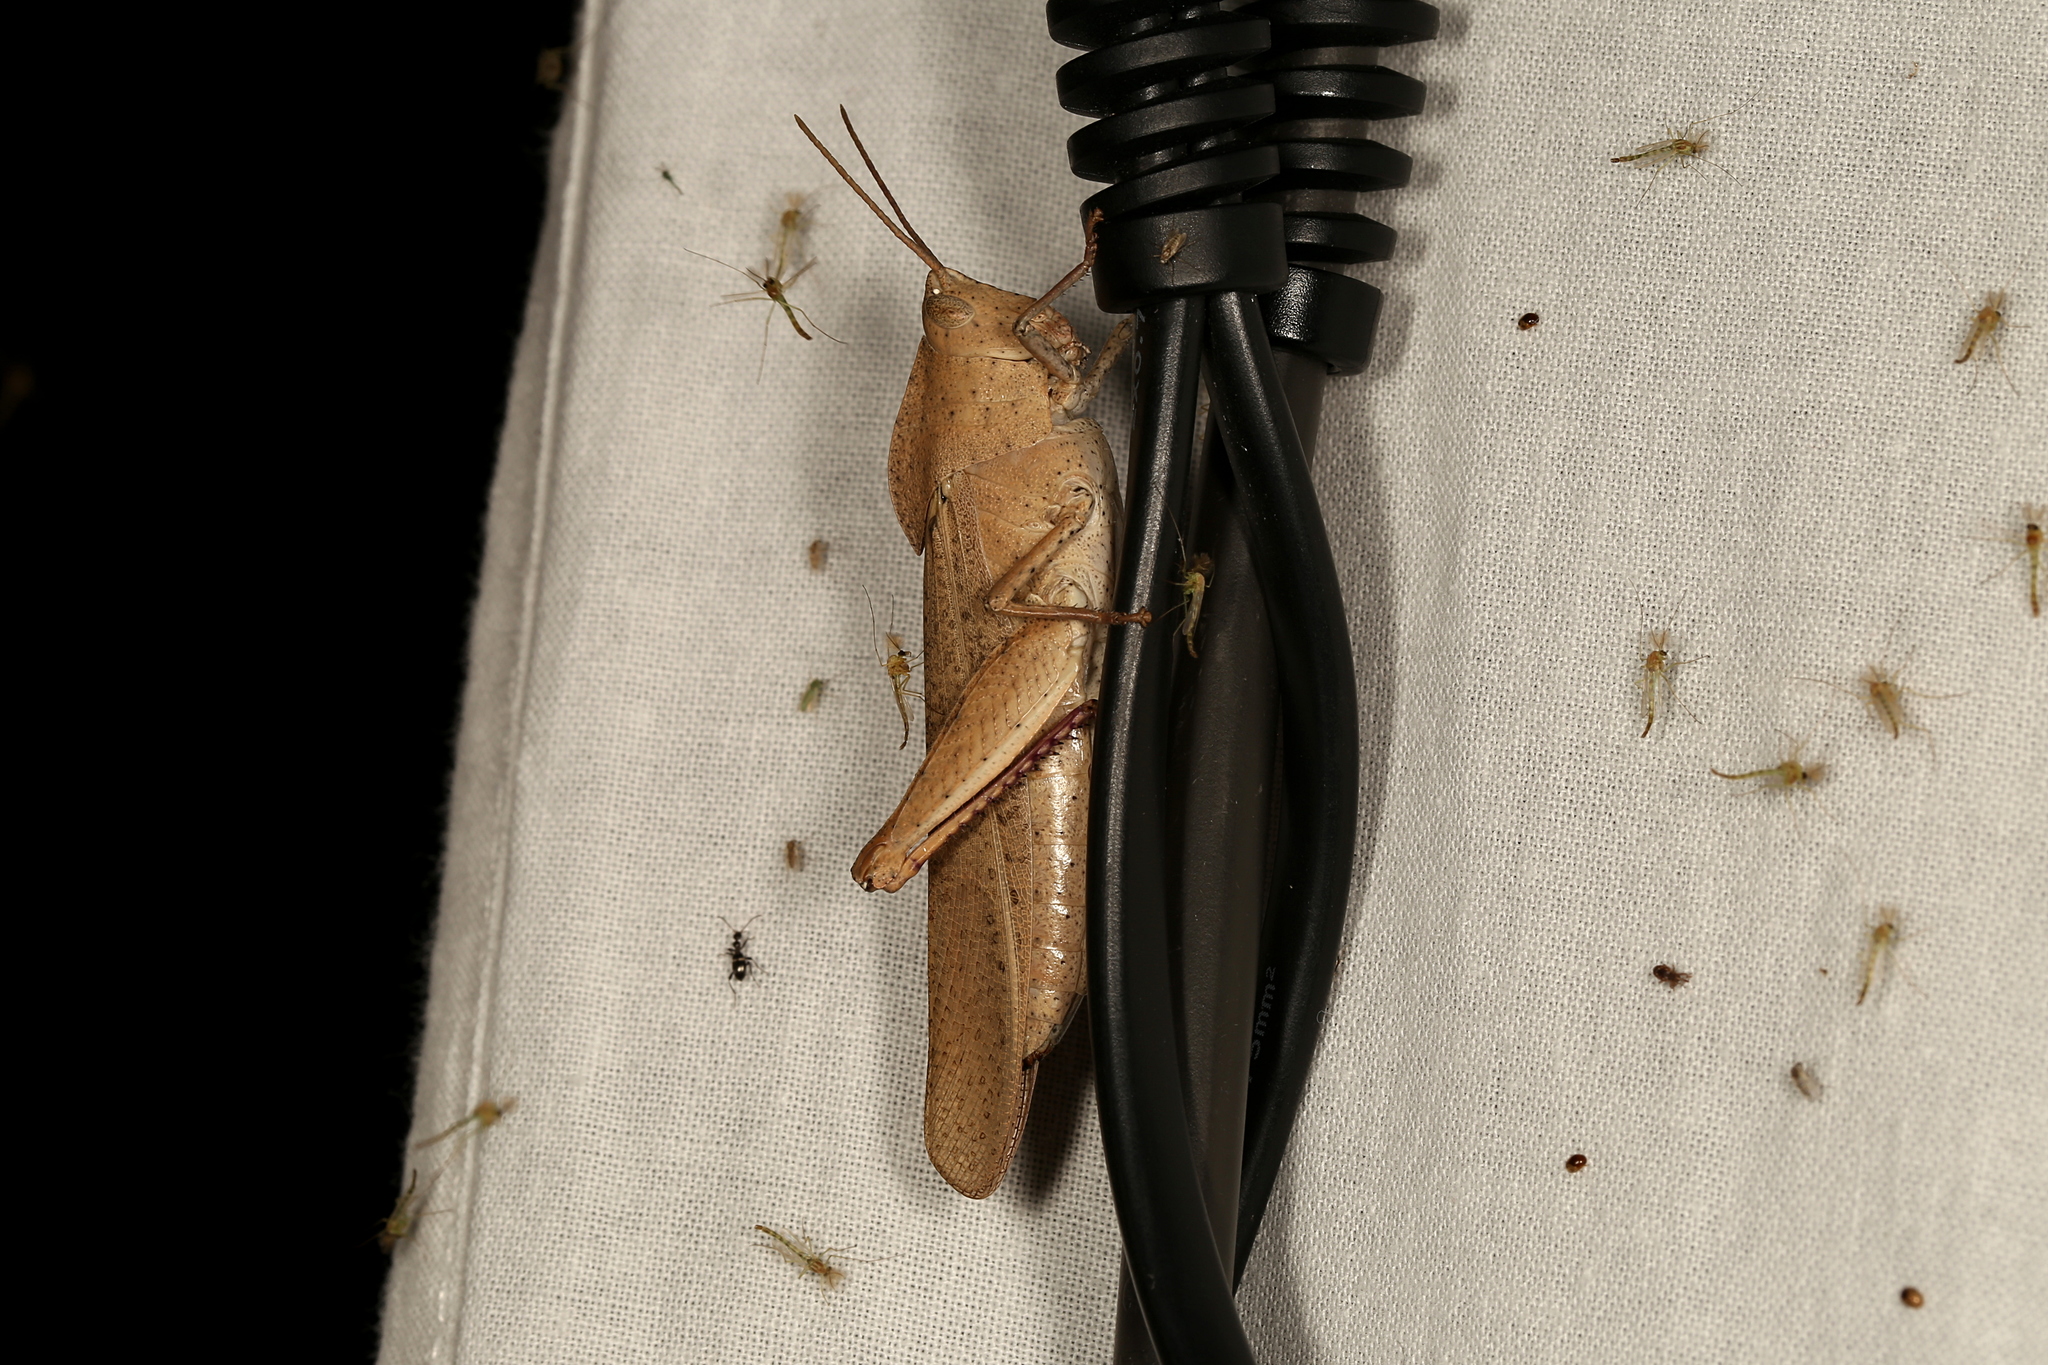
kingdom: Animalia
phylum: Arthropoda
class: Insecta
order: Orthoptera
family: Acrididae
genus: Goniaea
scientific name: Goniaea australasiae
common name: Gumleaf grasshopper
